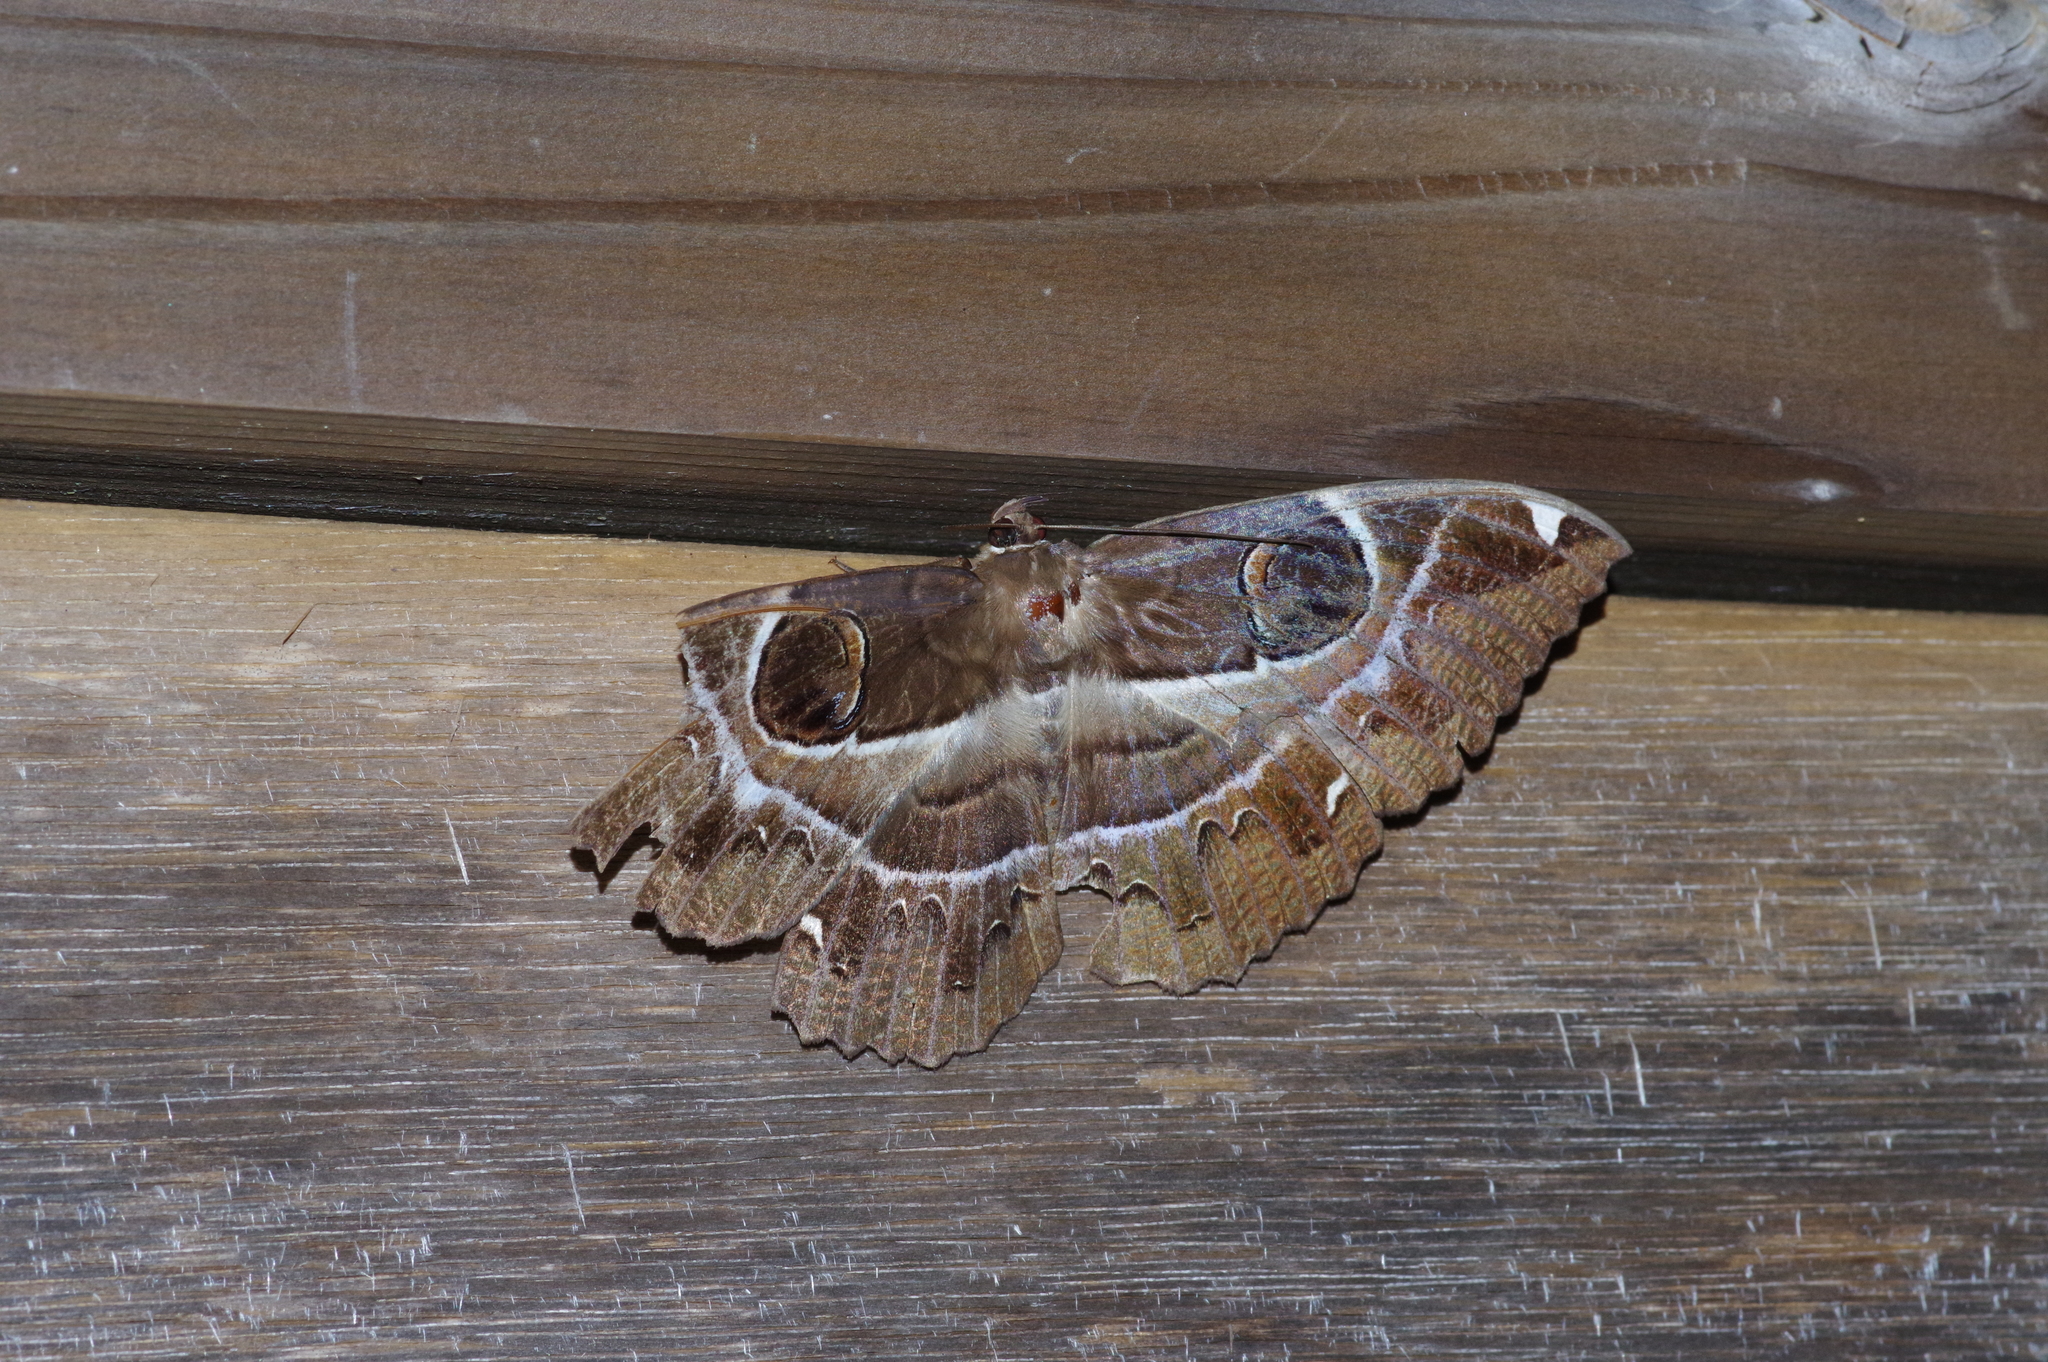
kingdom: Animalia
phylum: Arthropoda
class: Insecta
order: Lepidoptera
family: Erebidae
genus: Erebus
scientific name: Erebus ephesperis
